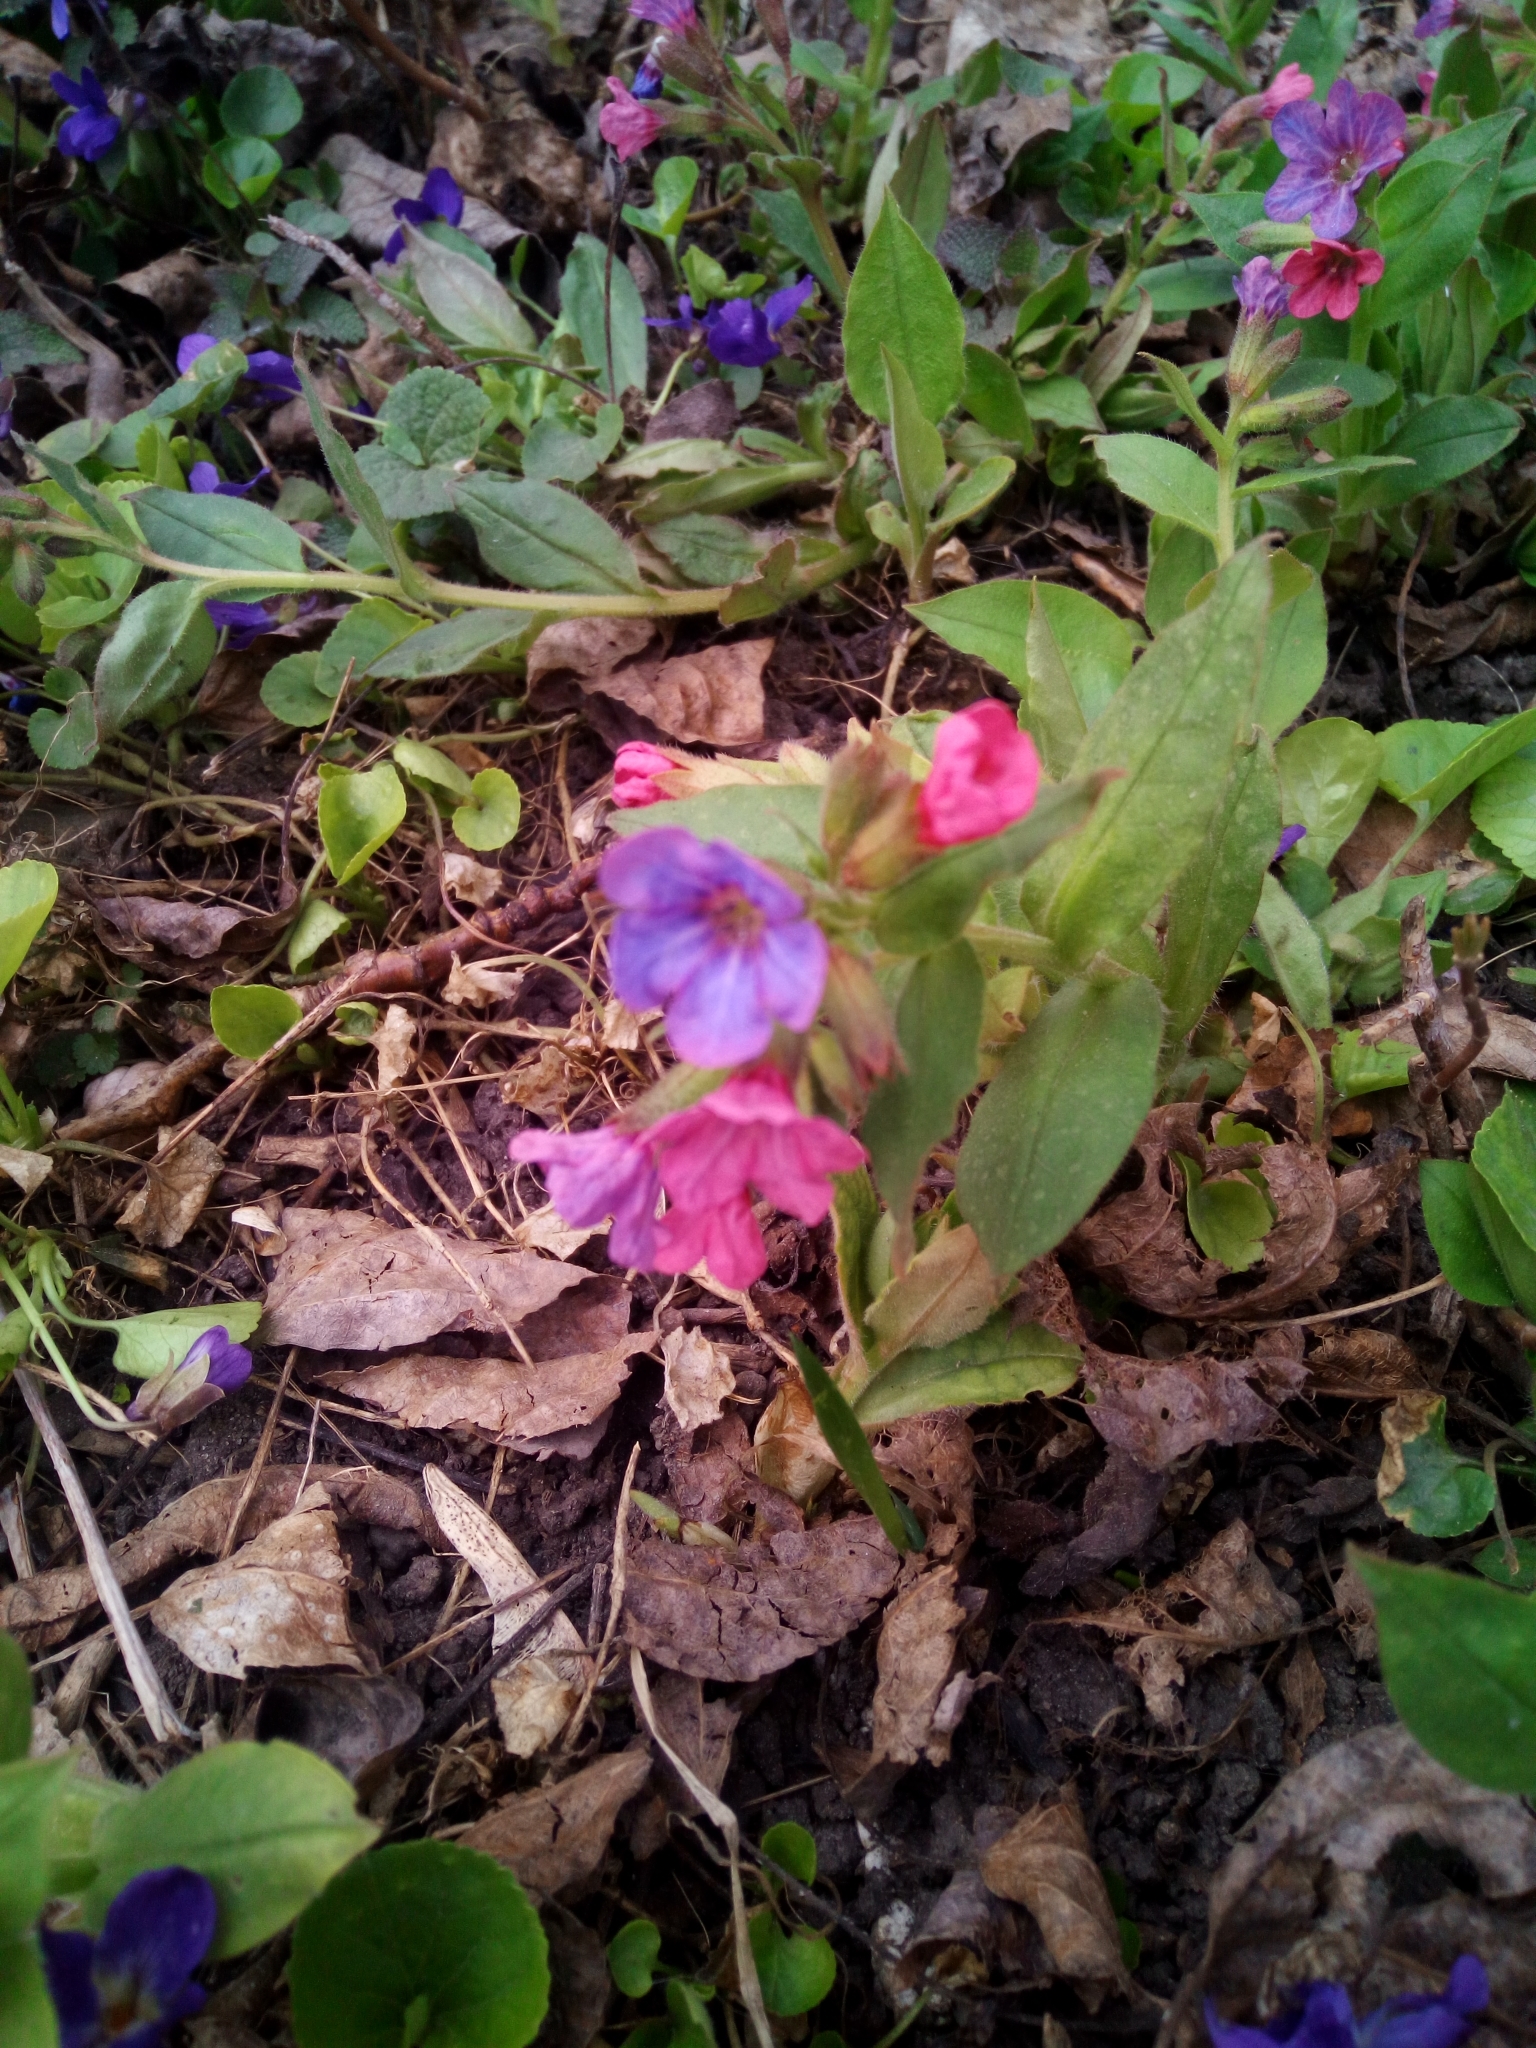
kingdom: Plantae
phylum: Tracheophyta
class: Magnoliopsida
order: Boraginales
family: Boraginaceae
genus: Pulmonaria
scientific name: Pulmonaria obscura
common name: Suffolk lungwort
